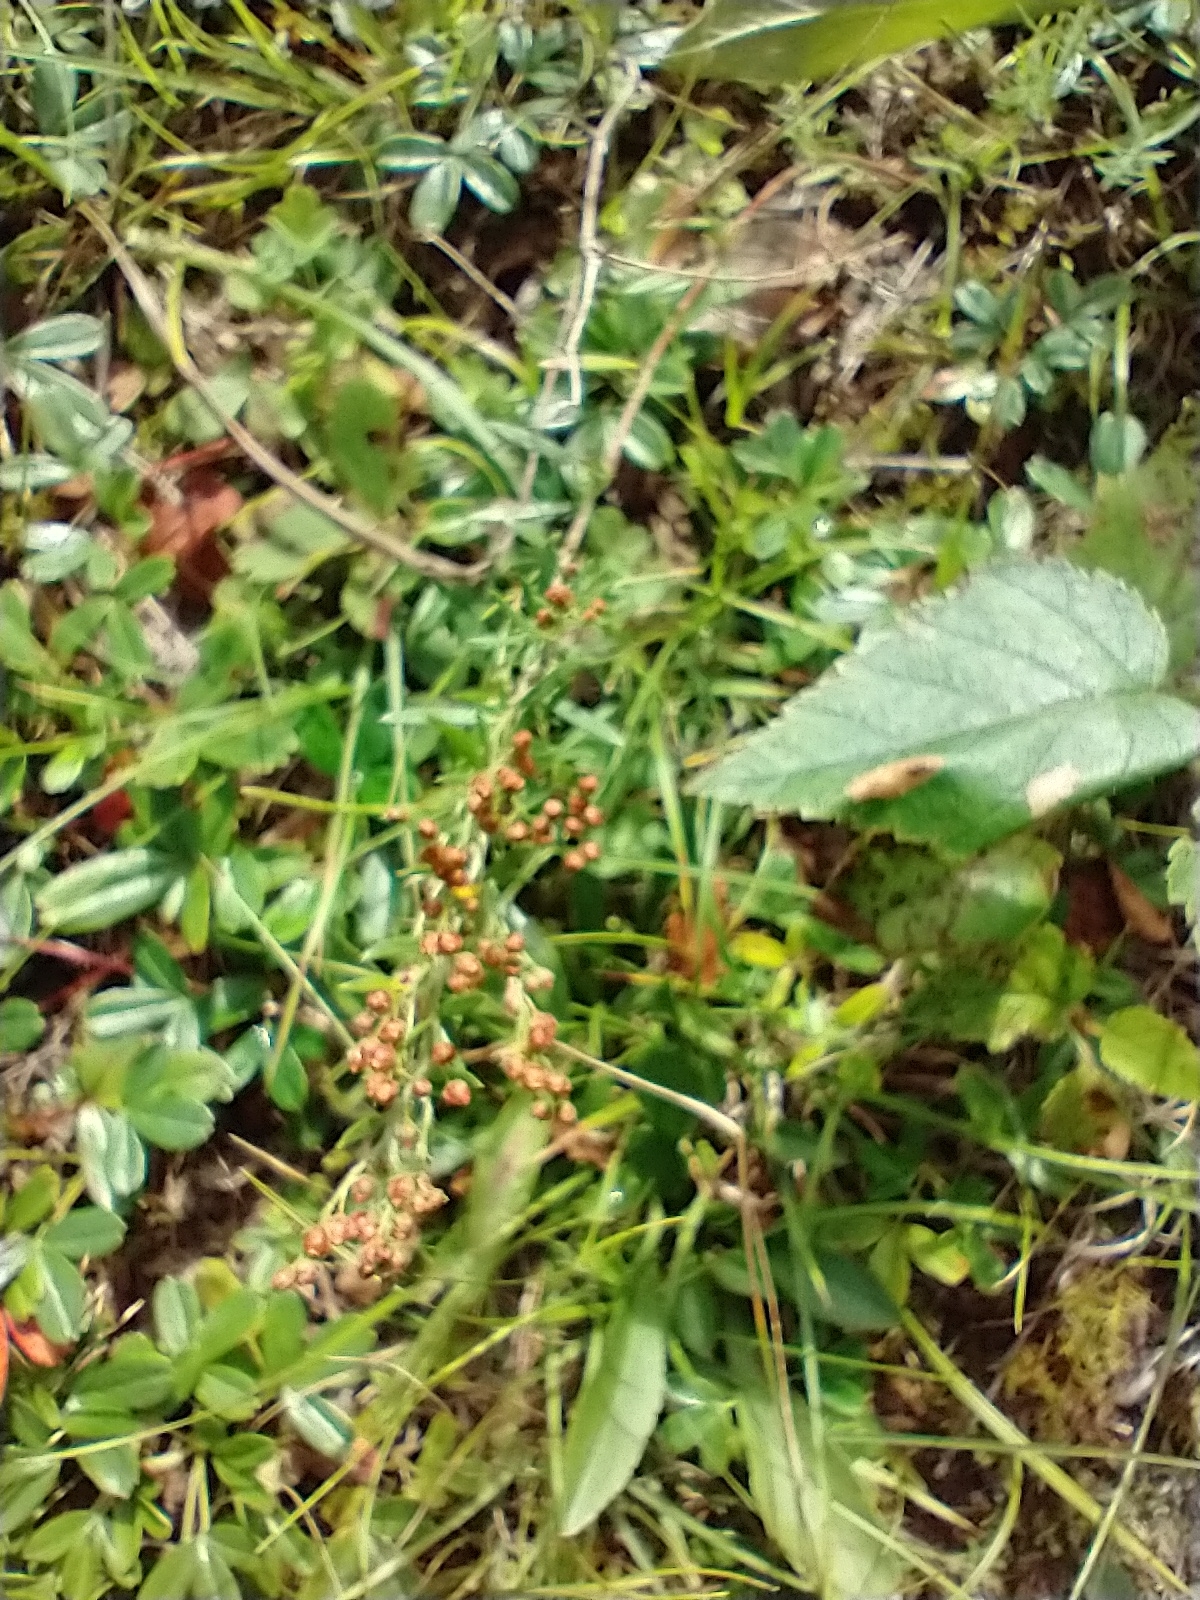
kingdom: Plantae
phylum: Tracheophyta
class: Magnoliopsida
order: Malvales
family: Cistaceae
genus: Lechea
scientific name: Lechea intermedia
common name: Intermediate pinweed
